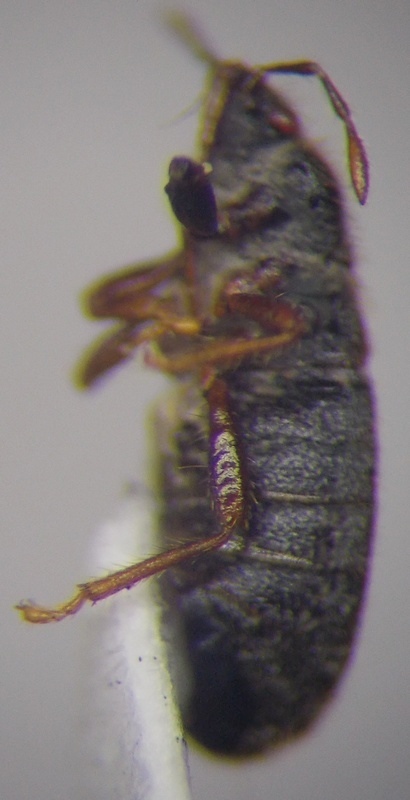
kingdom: Animalia
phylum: Arthropoda
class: Insecta
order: Hemiptera
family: Blissidae
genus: Dimorphopterus
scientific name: Dimorphopterus doriae
